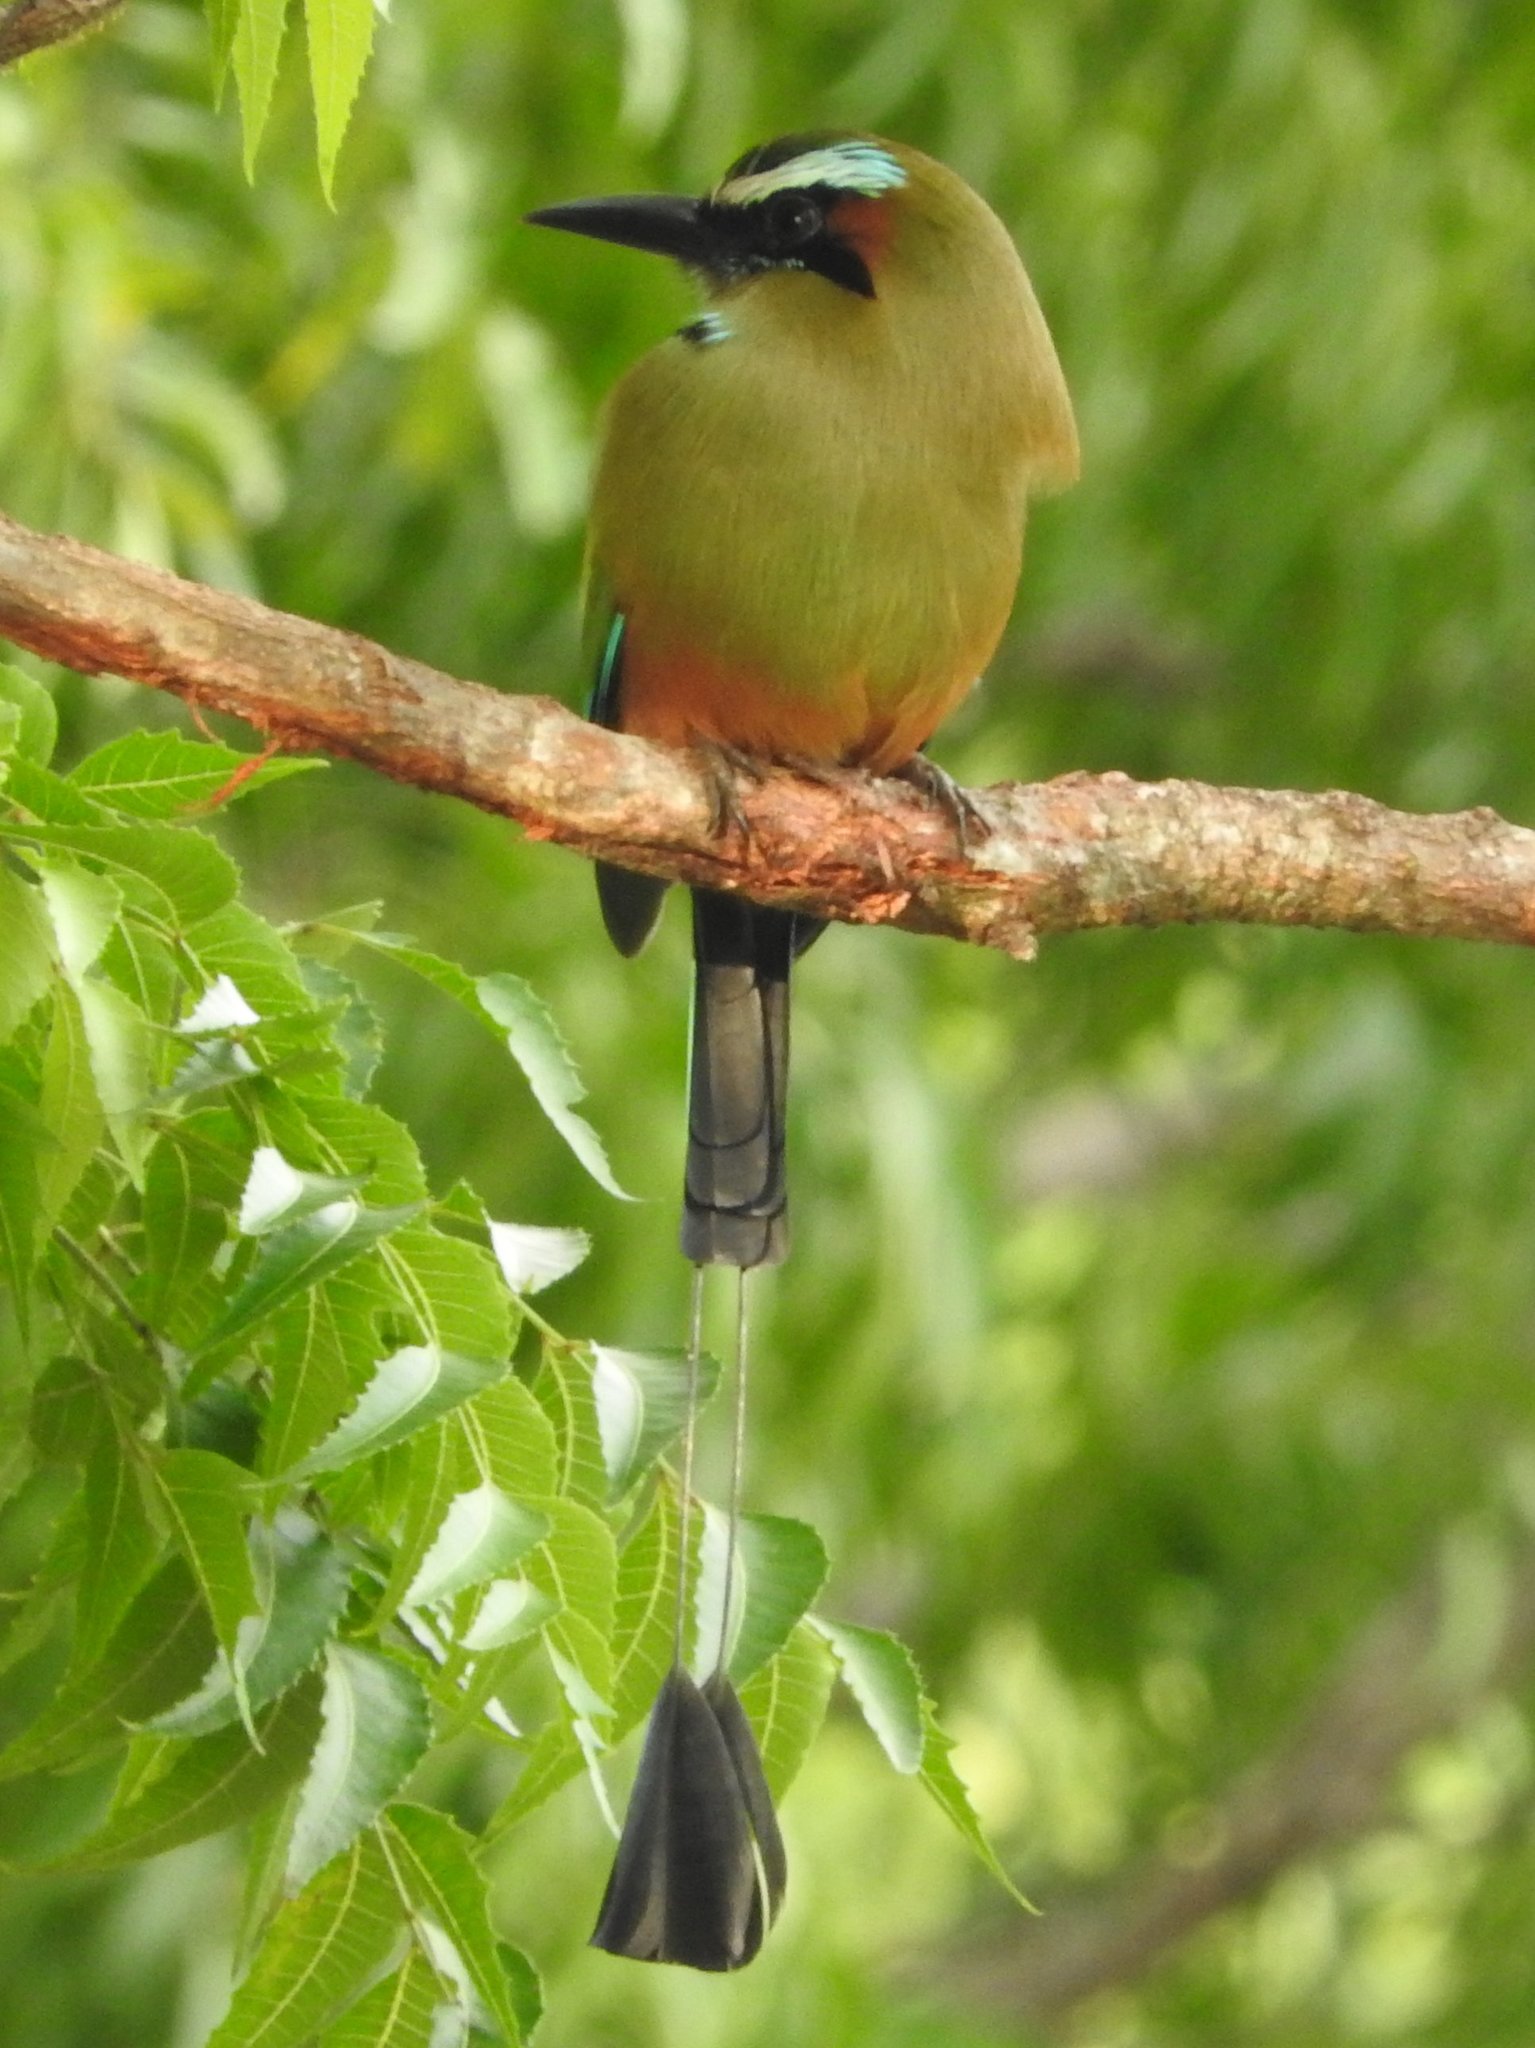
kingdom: Animalia
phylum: Chordata
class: Aves
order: Coraciiformes
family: Momotidae
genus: Eumomota
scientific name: Eumomota superciliosa
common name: Turquoise-browed motmot
